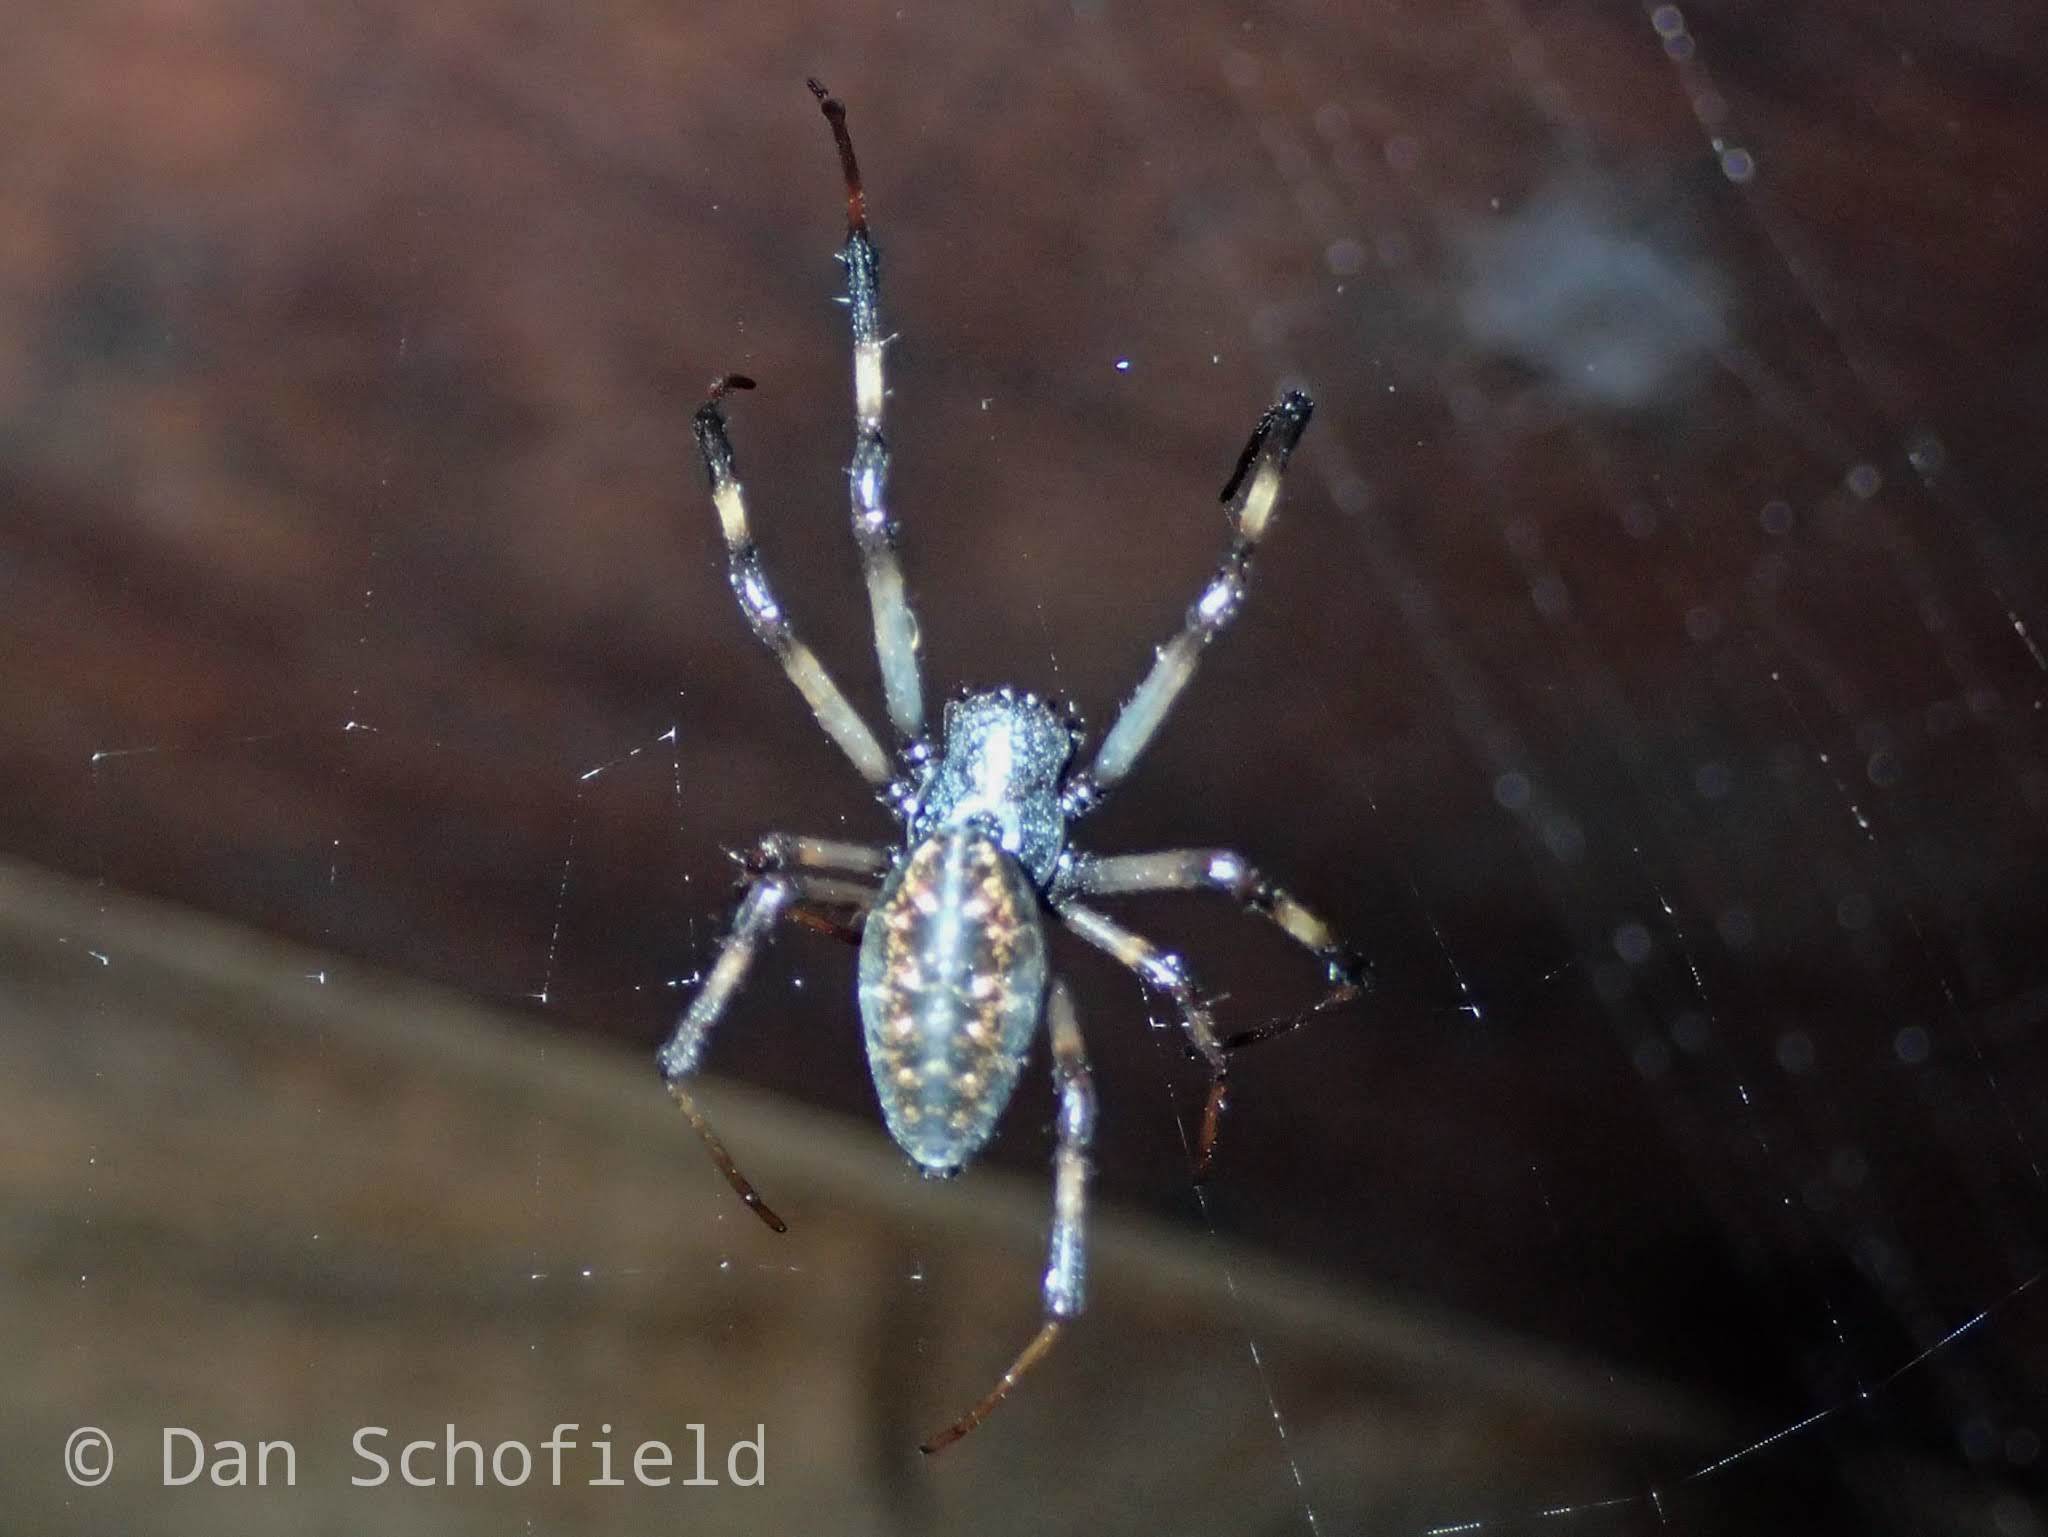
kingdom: Animalia
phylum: Arthropoda
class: Arachnida
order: Araneae
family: Araneidae
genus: Nephilengys
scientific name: Nephilengys malabarensis
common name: Asian hermit spider
